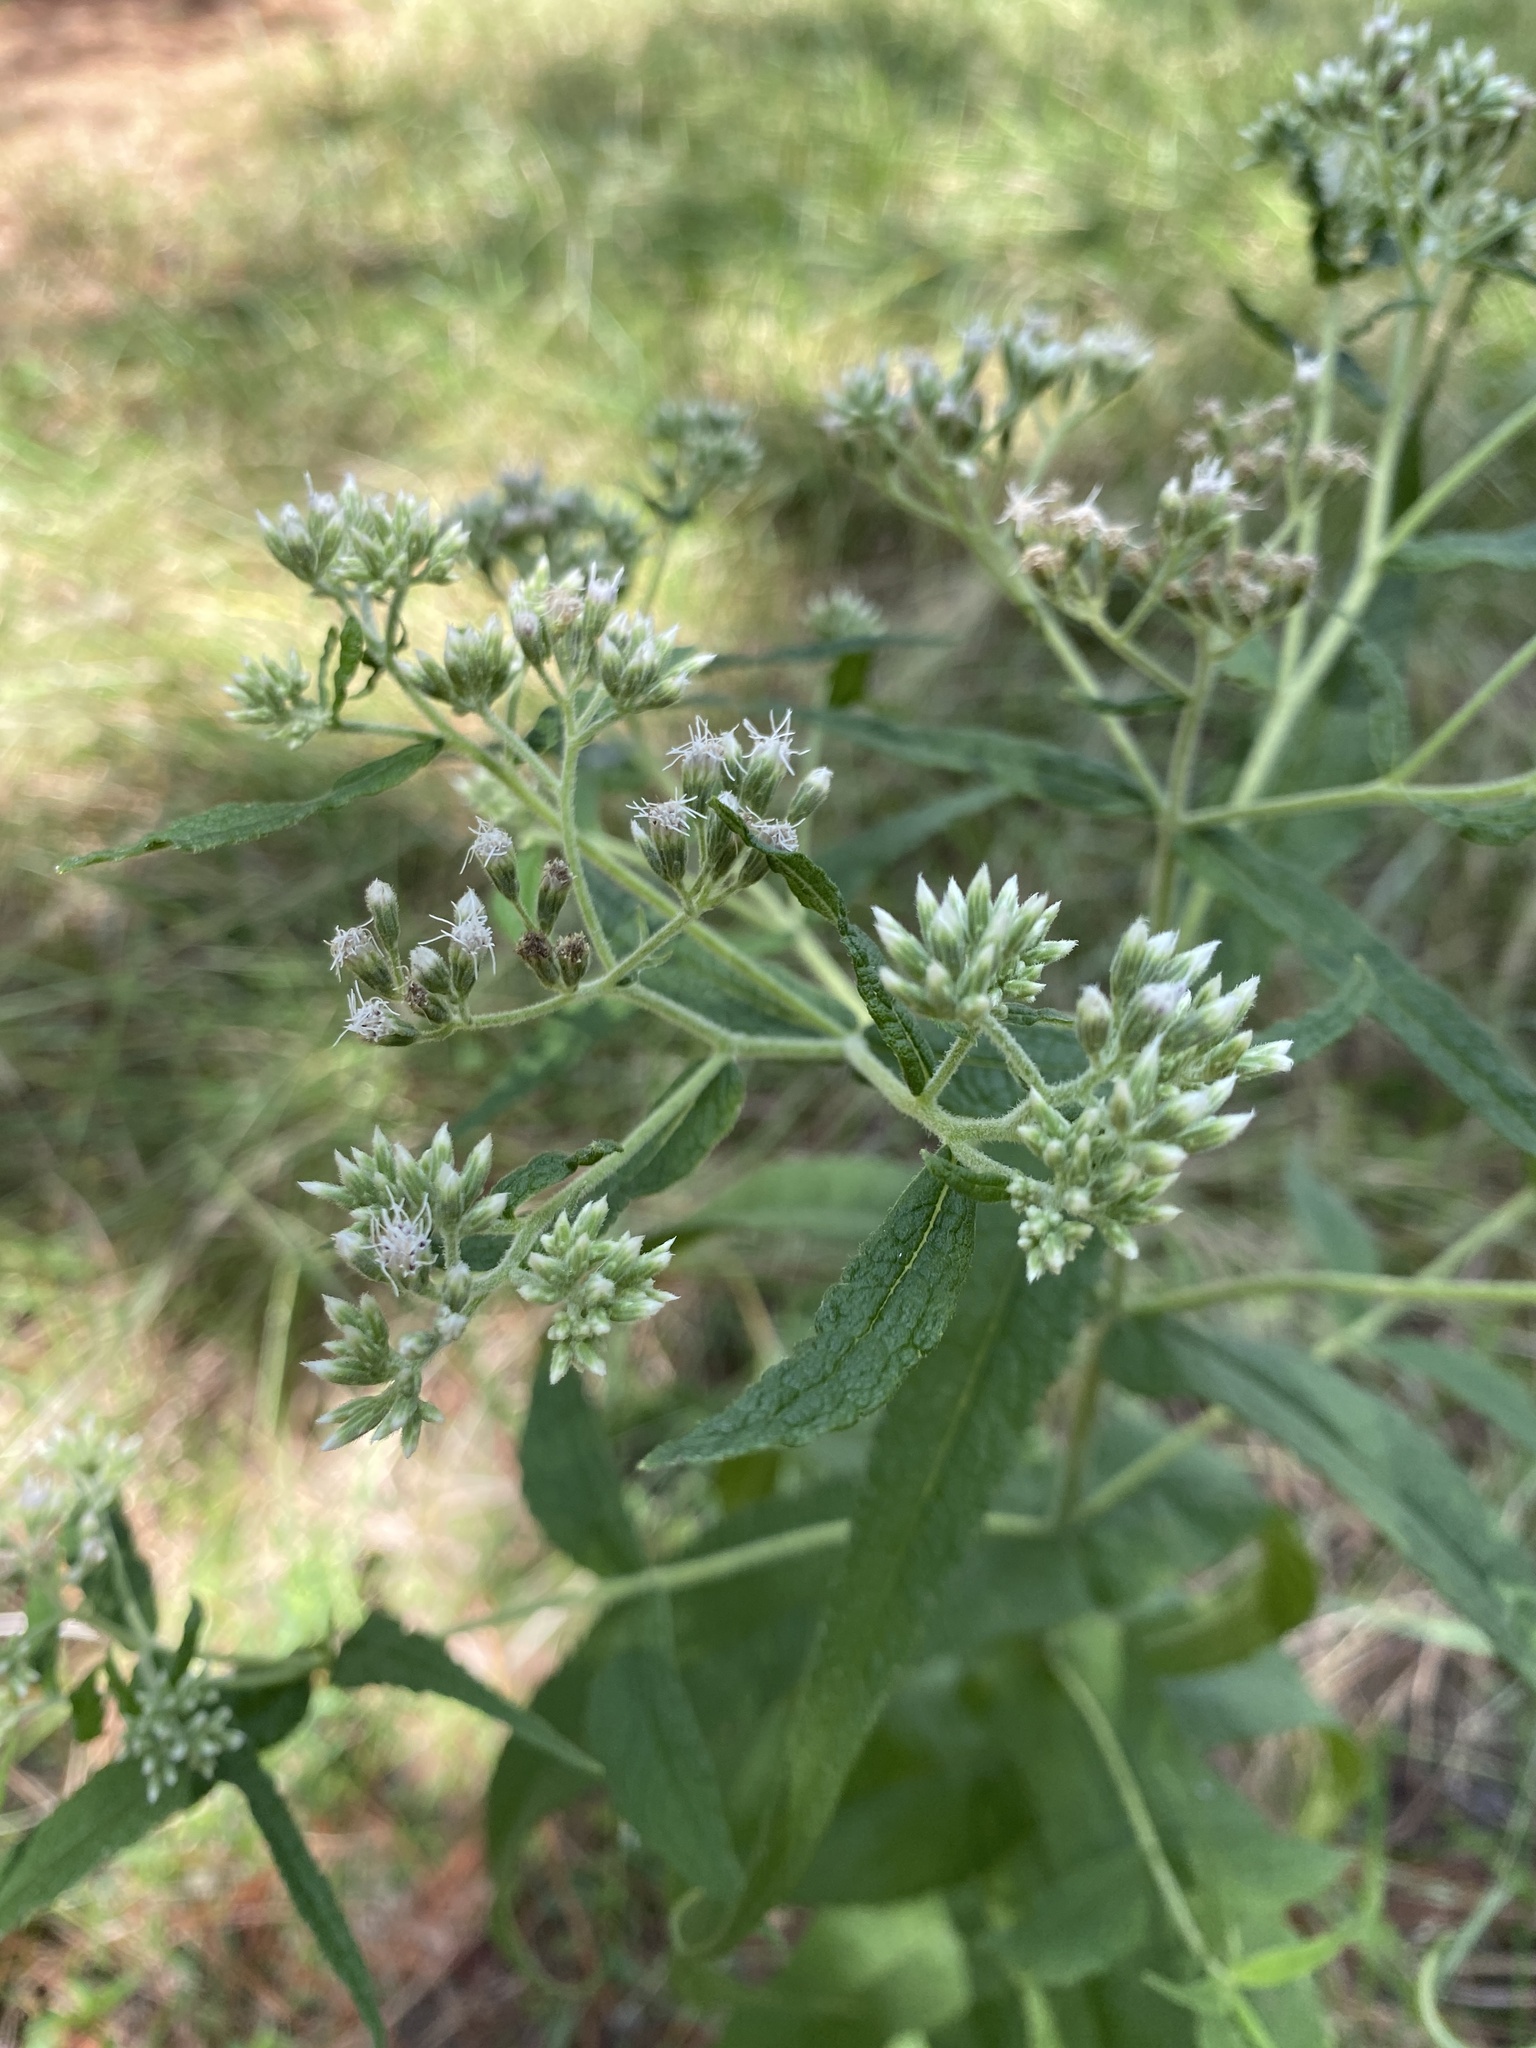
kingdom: Plantae
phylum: Tracheophyta
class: Magnoliopsida
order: Asterales
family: Asteraceae
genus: Eupatorium
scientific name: Eupatorium perfoliatum
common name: Boneset
